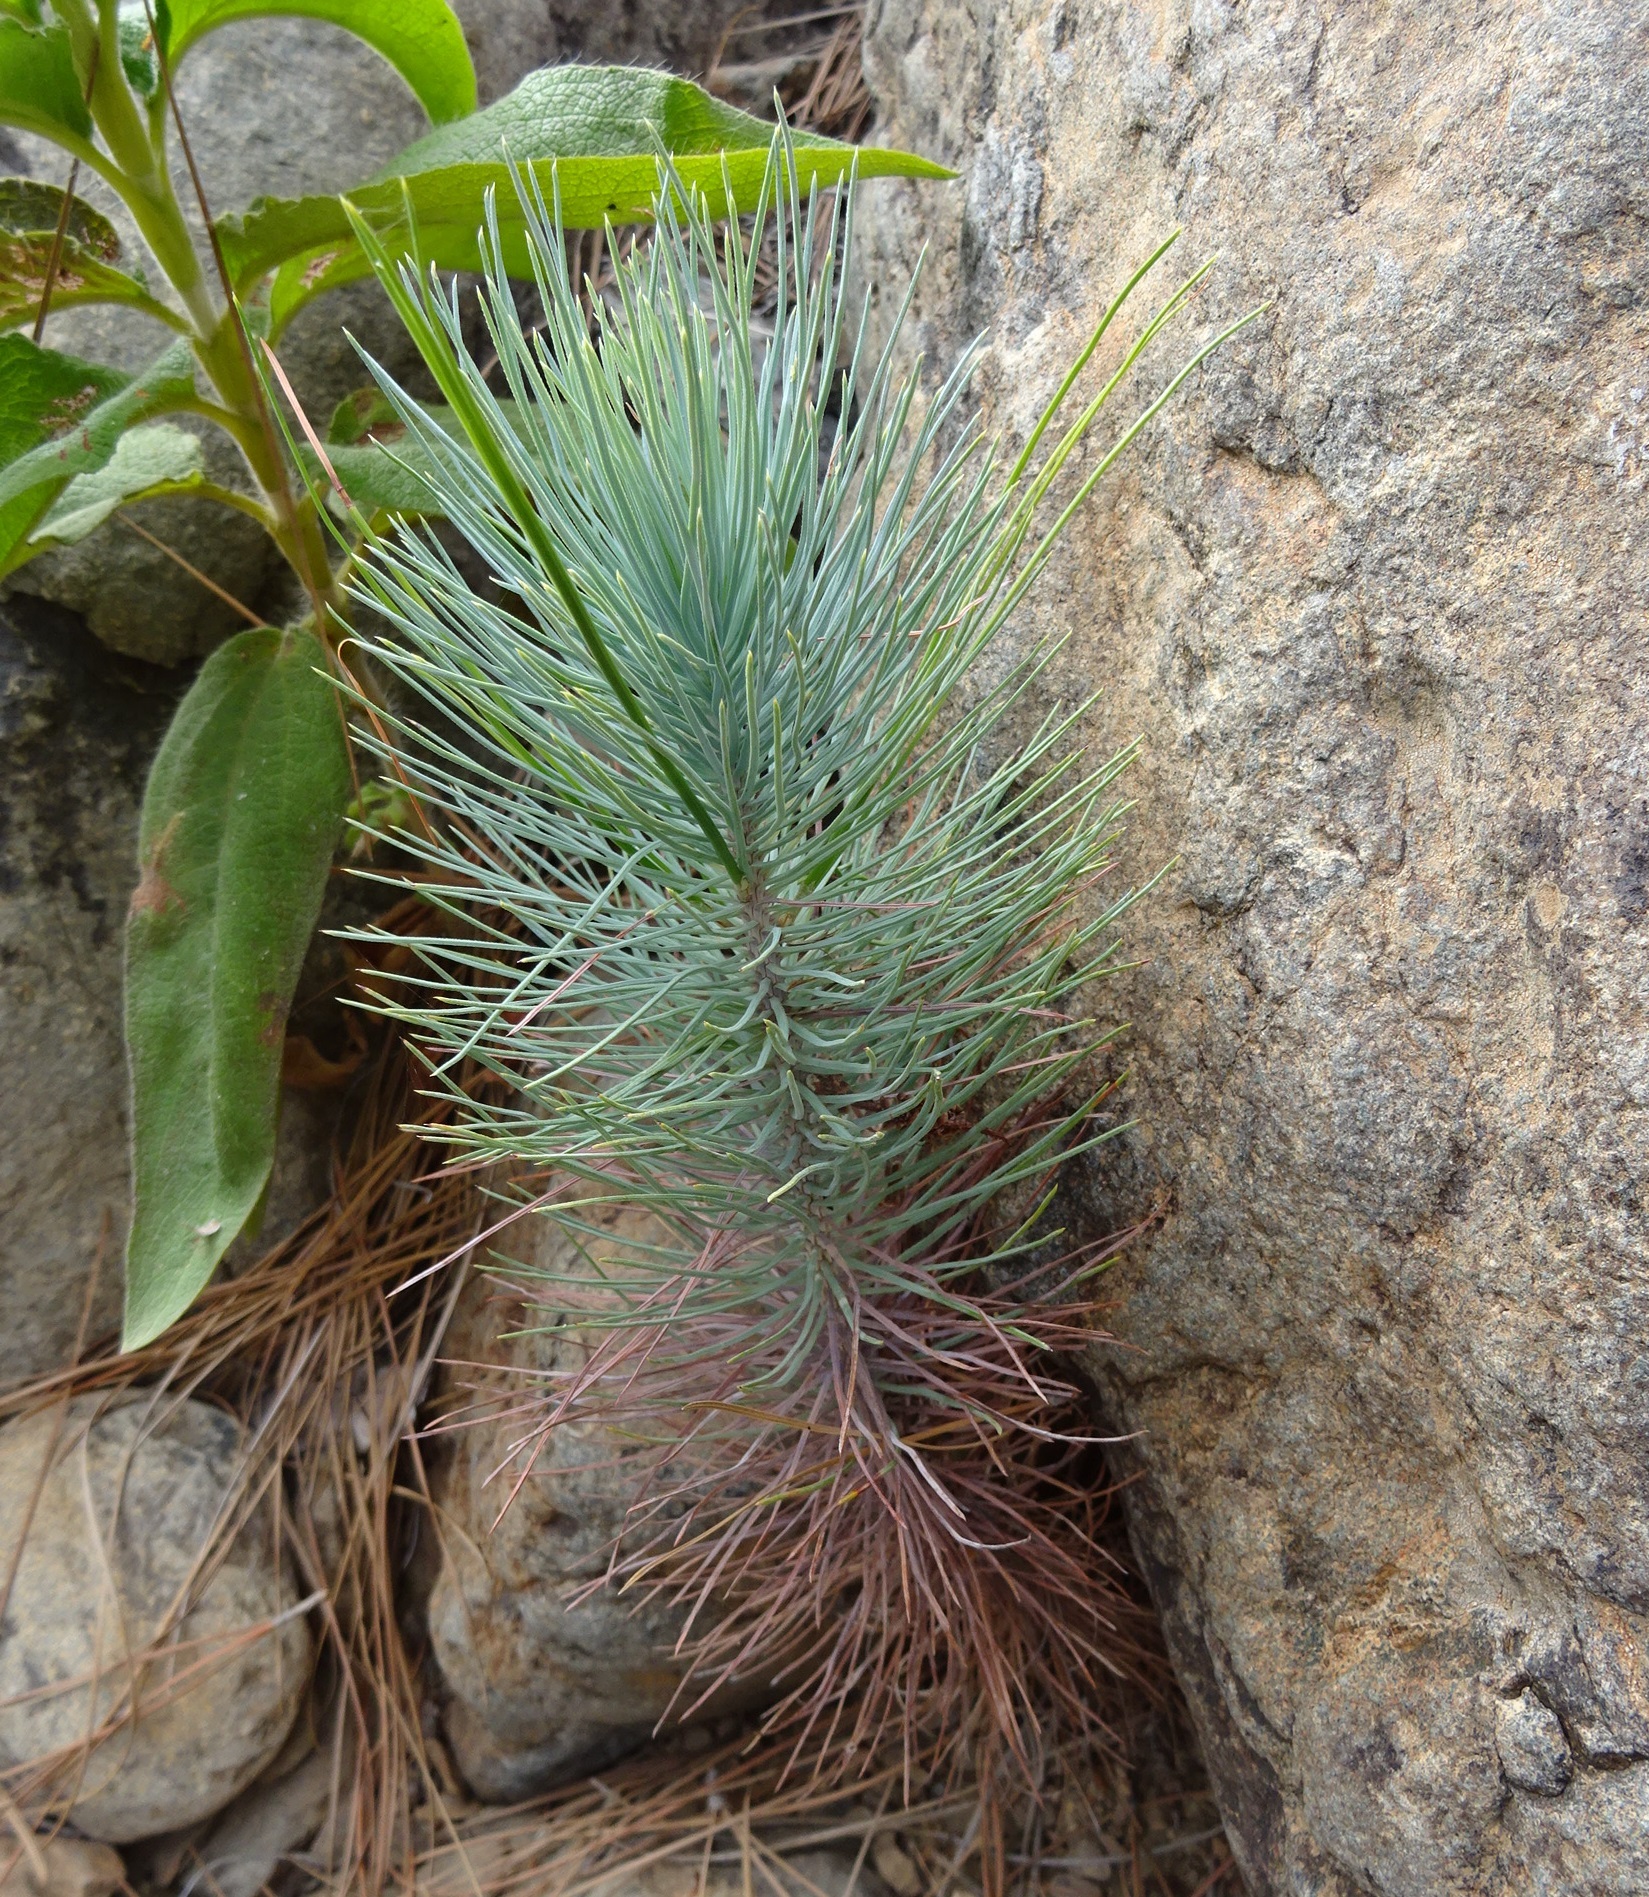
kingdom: Plantae
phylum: Tracheophyta
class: Pinopsida
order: Pinales
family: Pinaceae
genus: Pinus
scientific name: Pinus canariensis
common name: Canary islands pine
